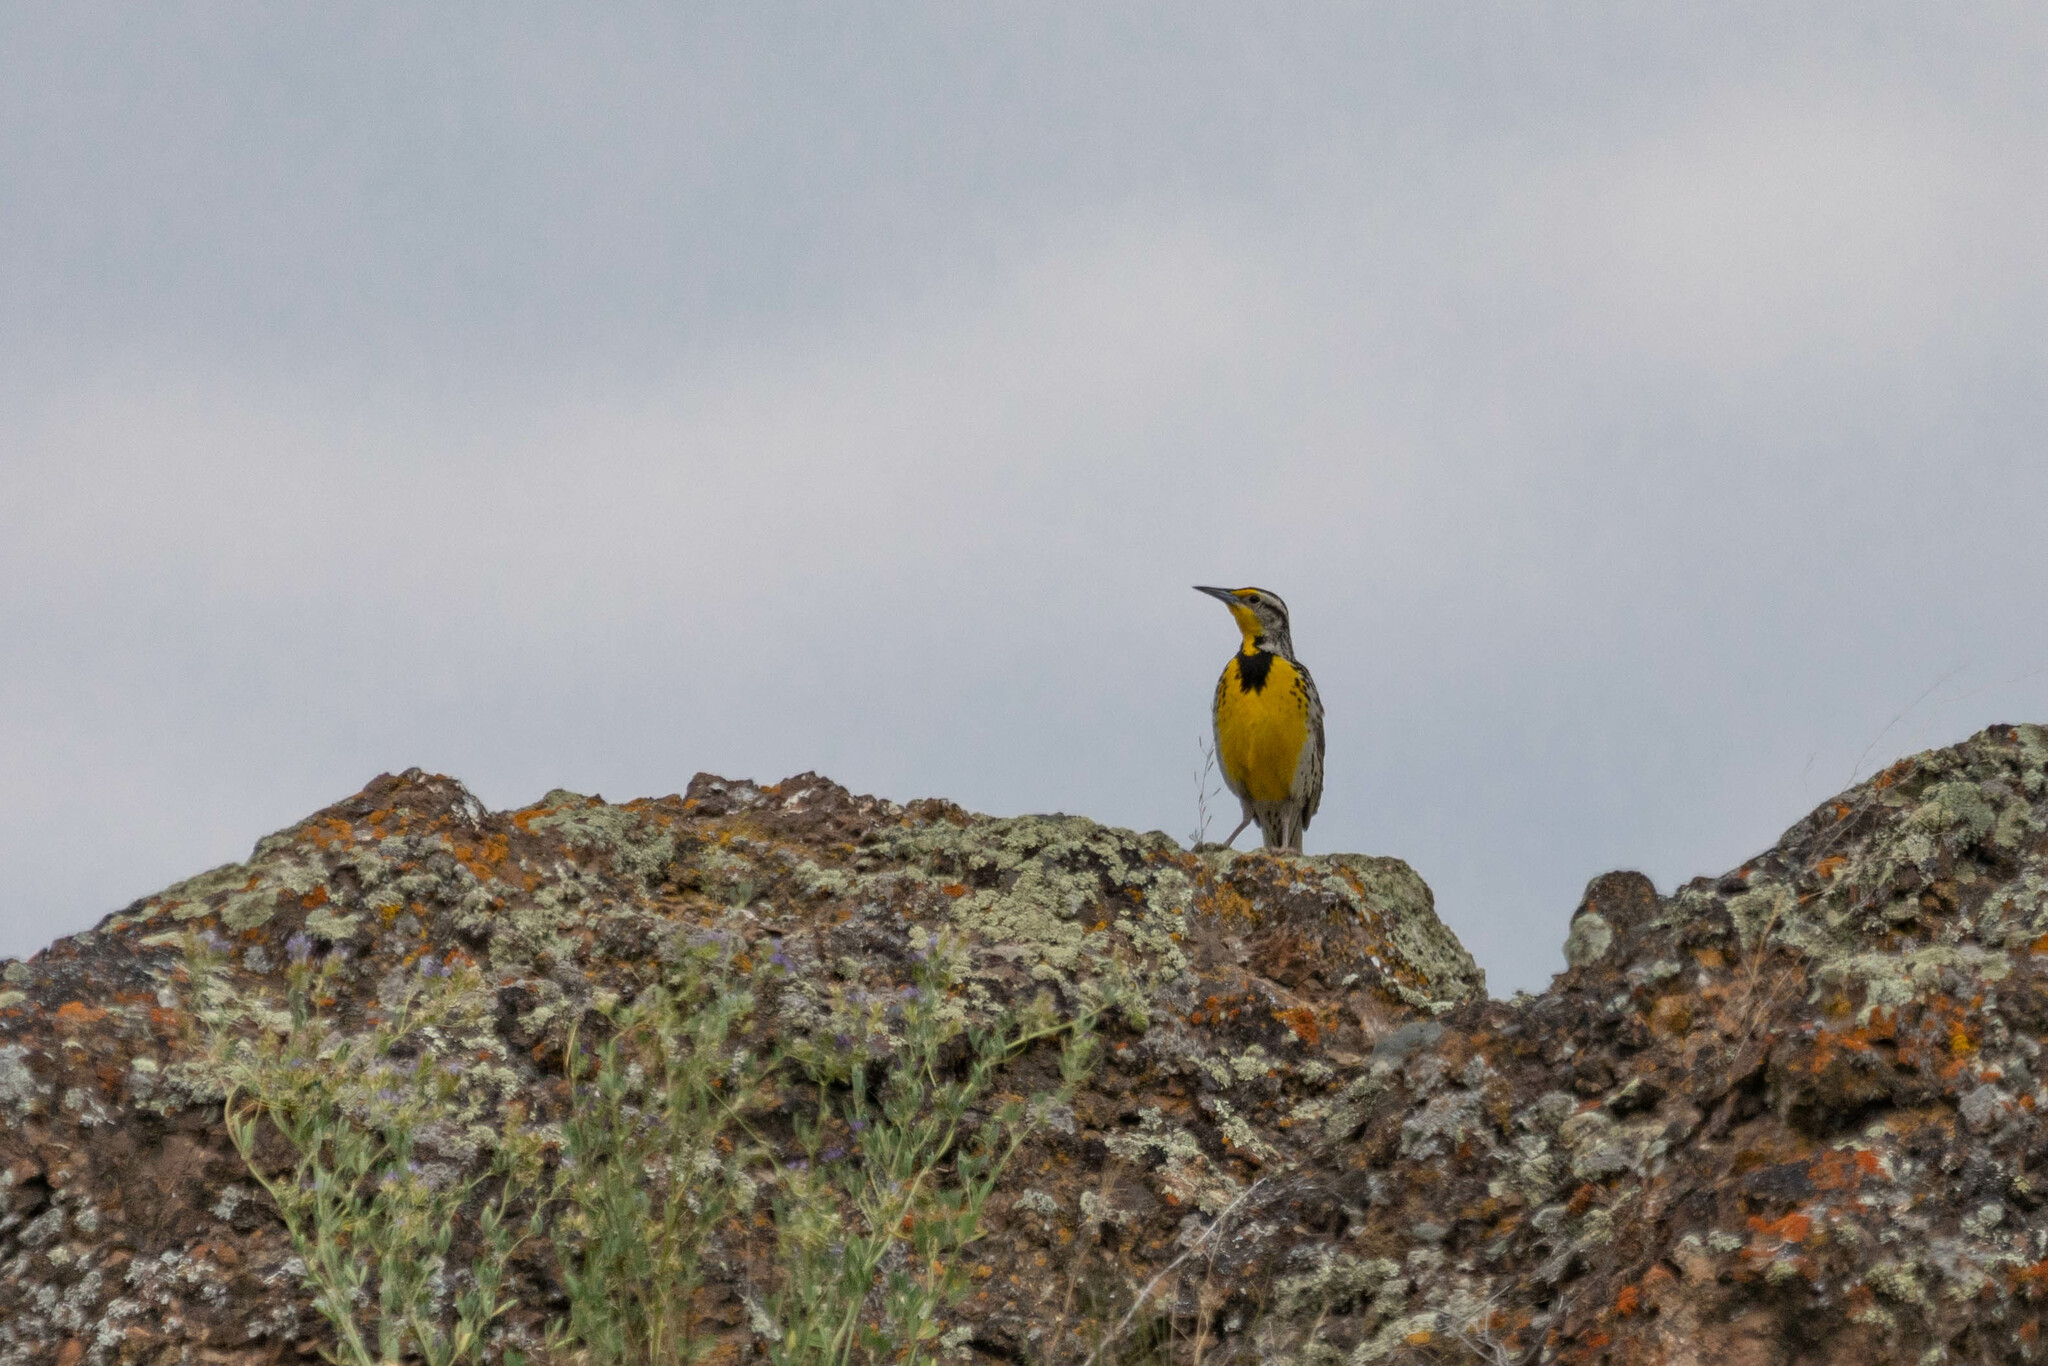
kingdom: Animalia
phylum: Chordata
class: Aves
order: Passeriformes
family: Icteridae
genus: Sturnella
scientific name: Sturnella neglecta
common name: Western meadowlark
